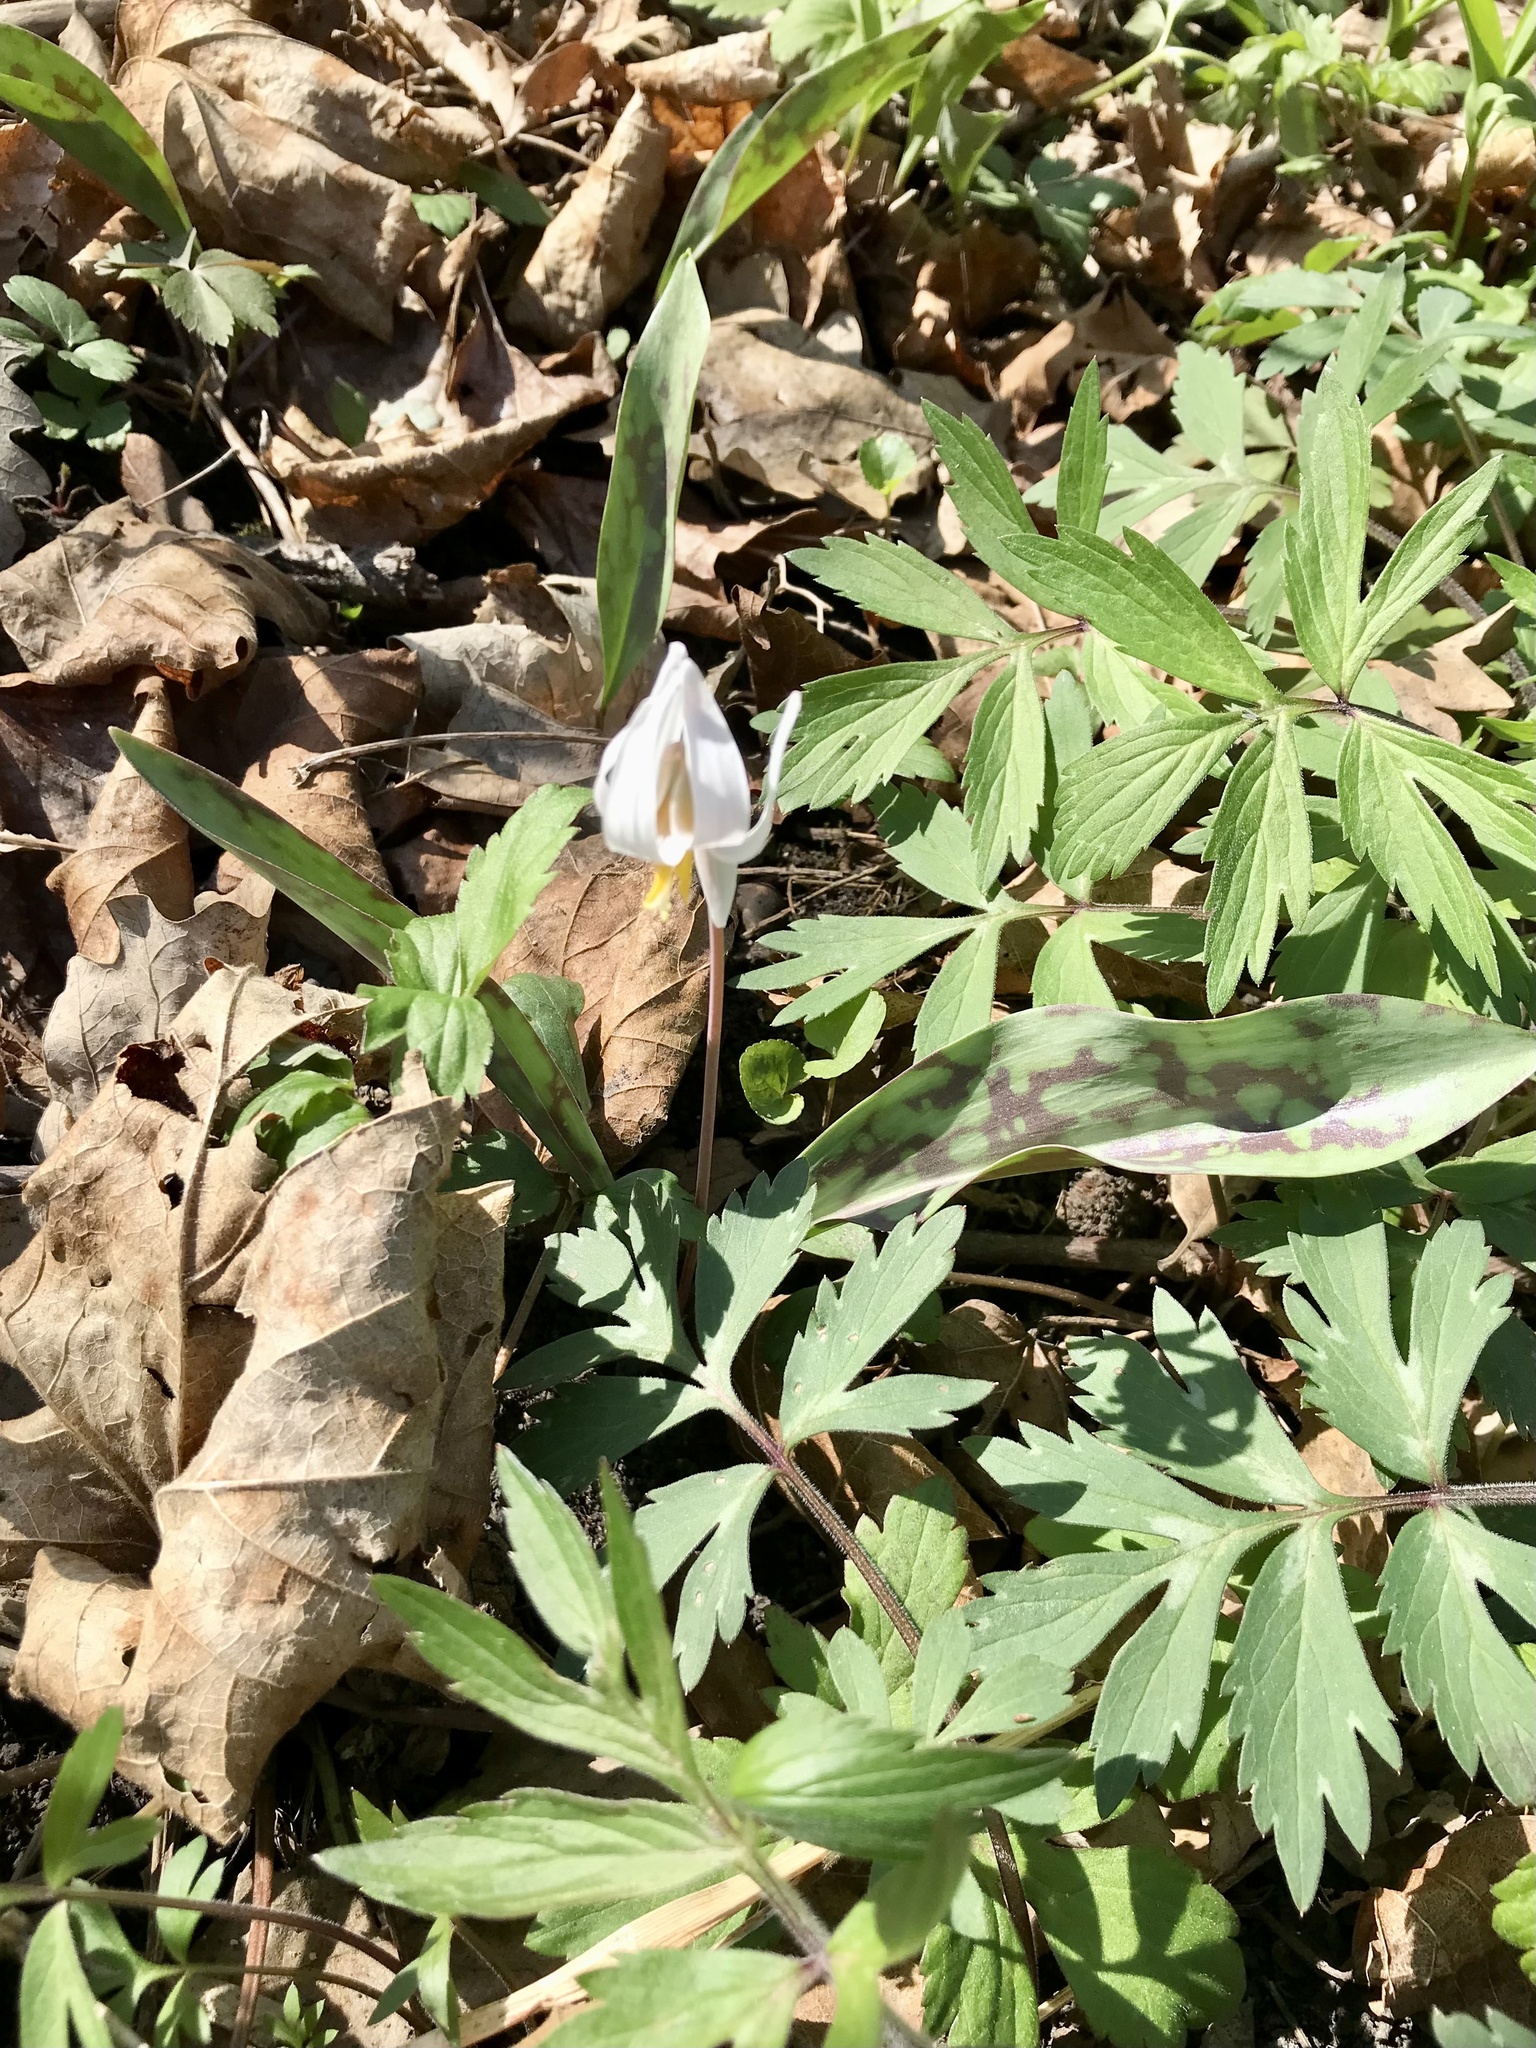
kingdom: Plantae
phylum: Tracheophyta
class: Liliopsida
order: Liliales
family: Liliaceae
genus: Erythronium
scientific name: Erythronium albidum
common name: White trout-lily
